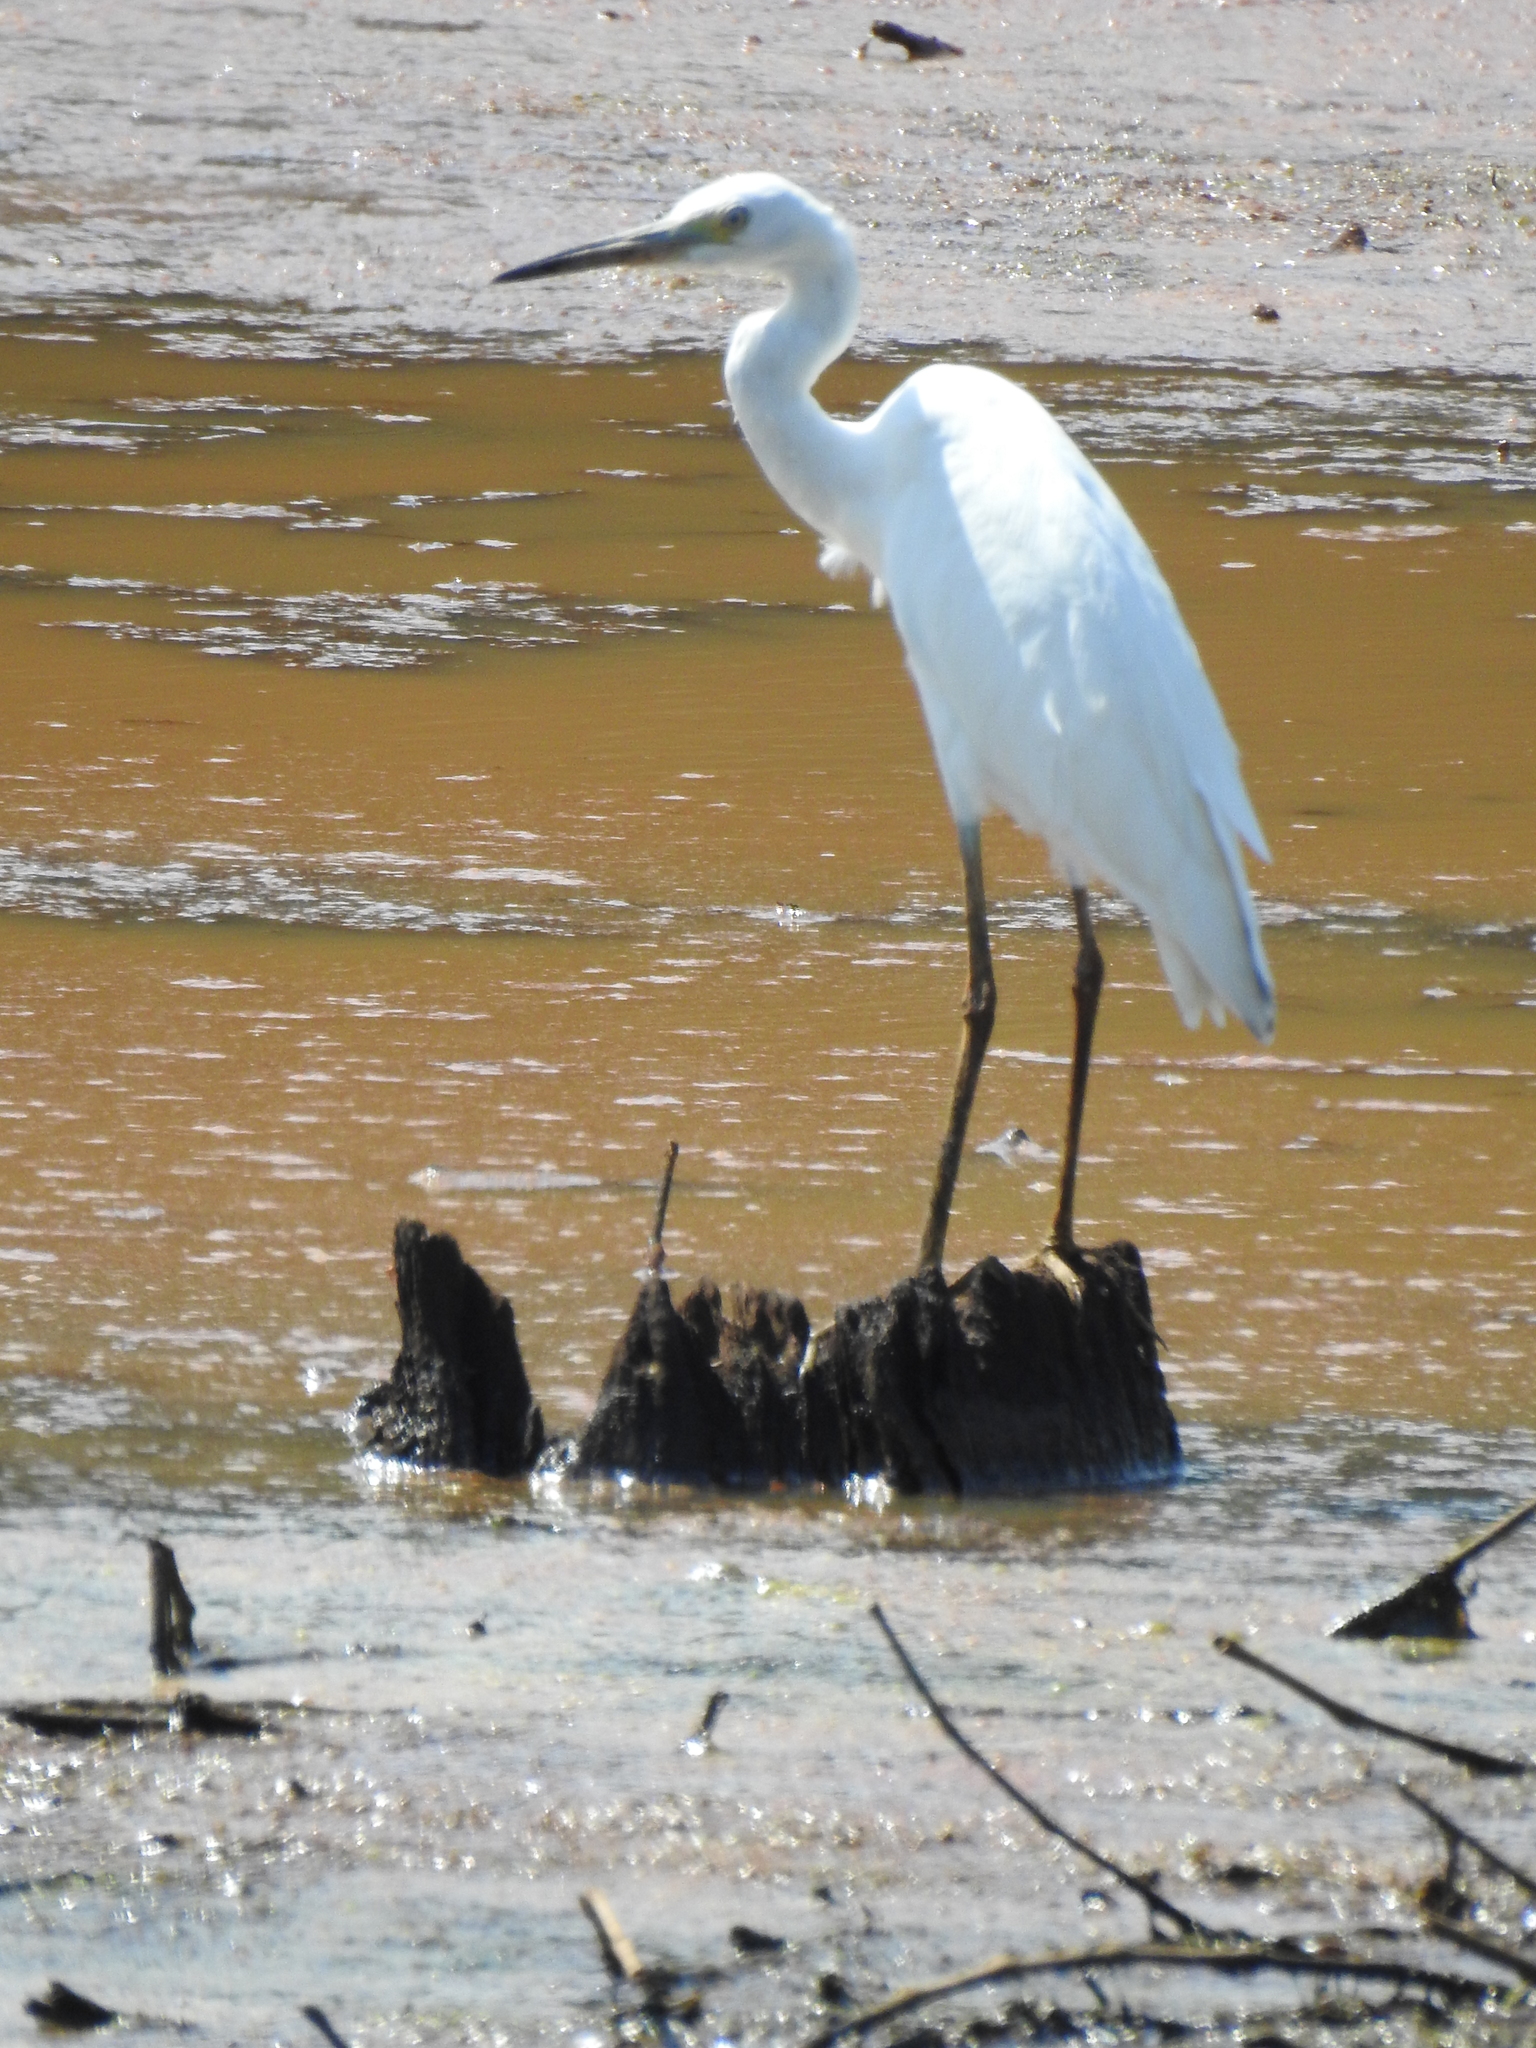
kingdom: Animalia
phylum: Chordata
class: Aves
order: Pelecaniformes
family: Ardeidae
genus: Ardea
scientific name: Ardea alba
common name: Great egret
